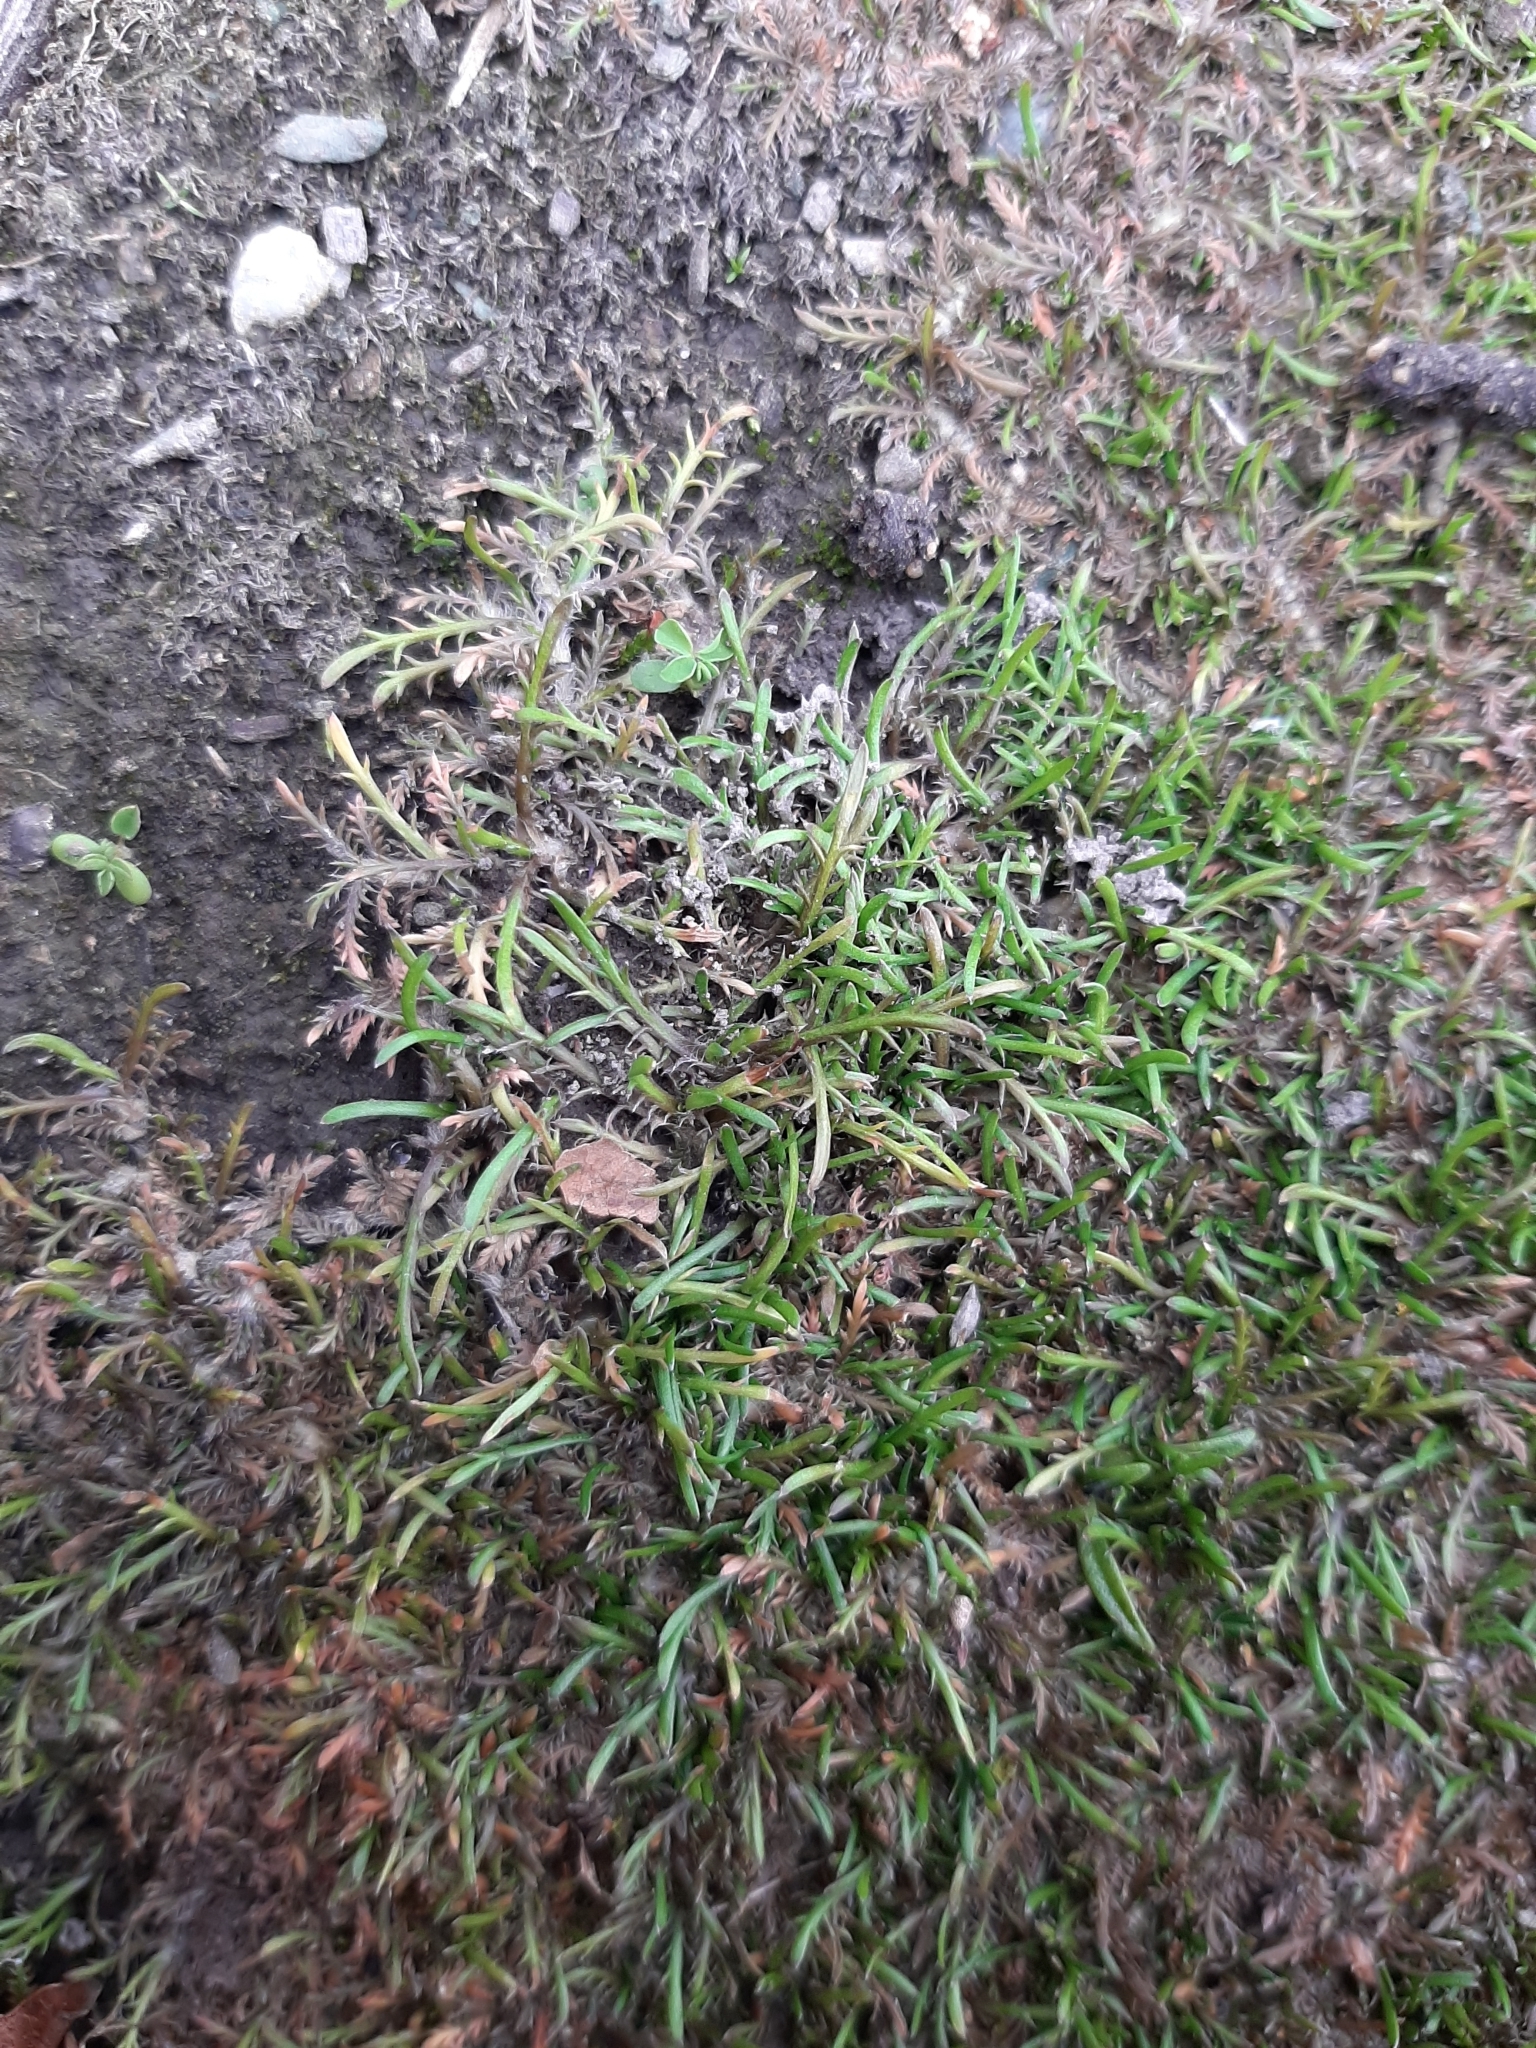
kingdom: Plantae
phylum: Tracheophyta
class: Magnoliopsida
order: Asterales
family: Asteraceae
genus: Leptinella
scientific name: Leptinella maniototo
